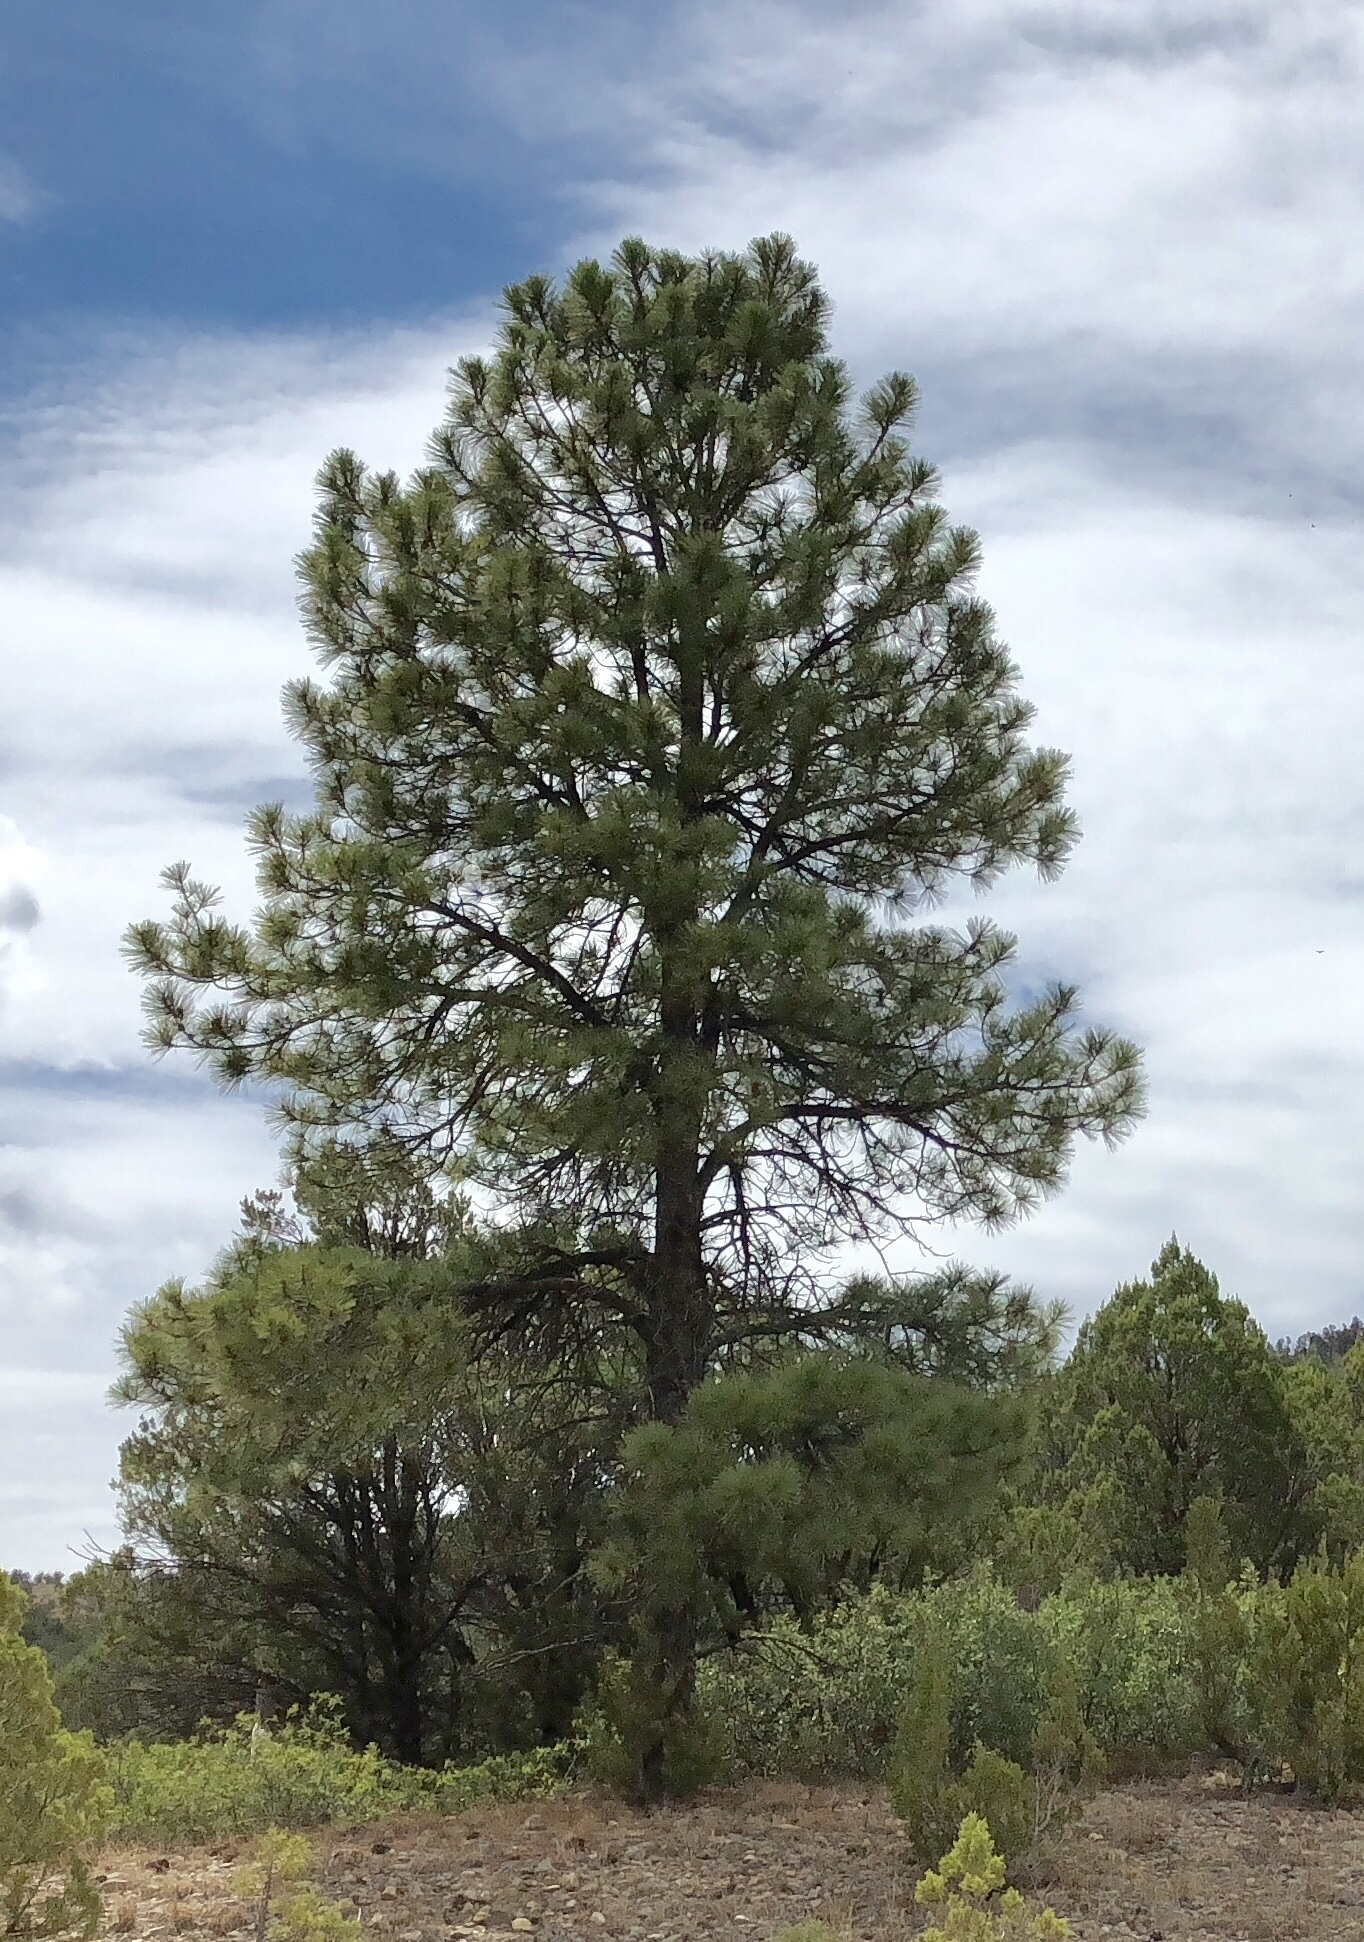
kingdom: Plantae
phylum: Tracheophyta
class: Pinopsida
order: Pinales
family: Pinaceae
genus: Pinus
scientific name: Pinus ponderosa
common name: Western yellow-pine
